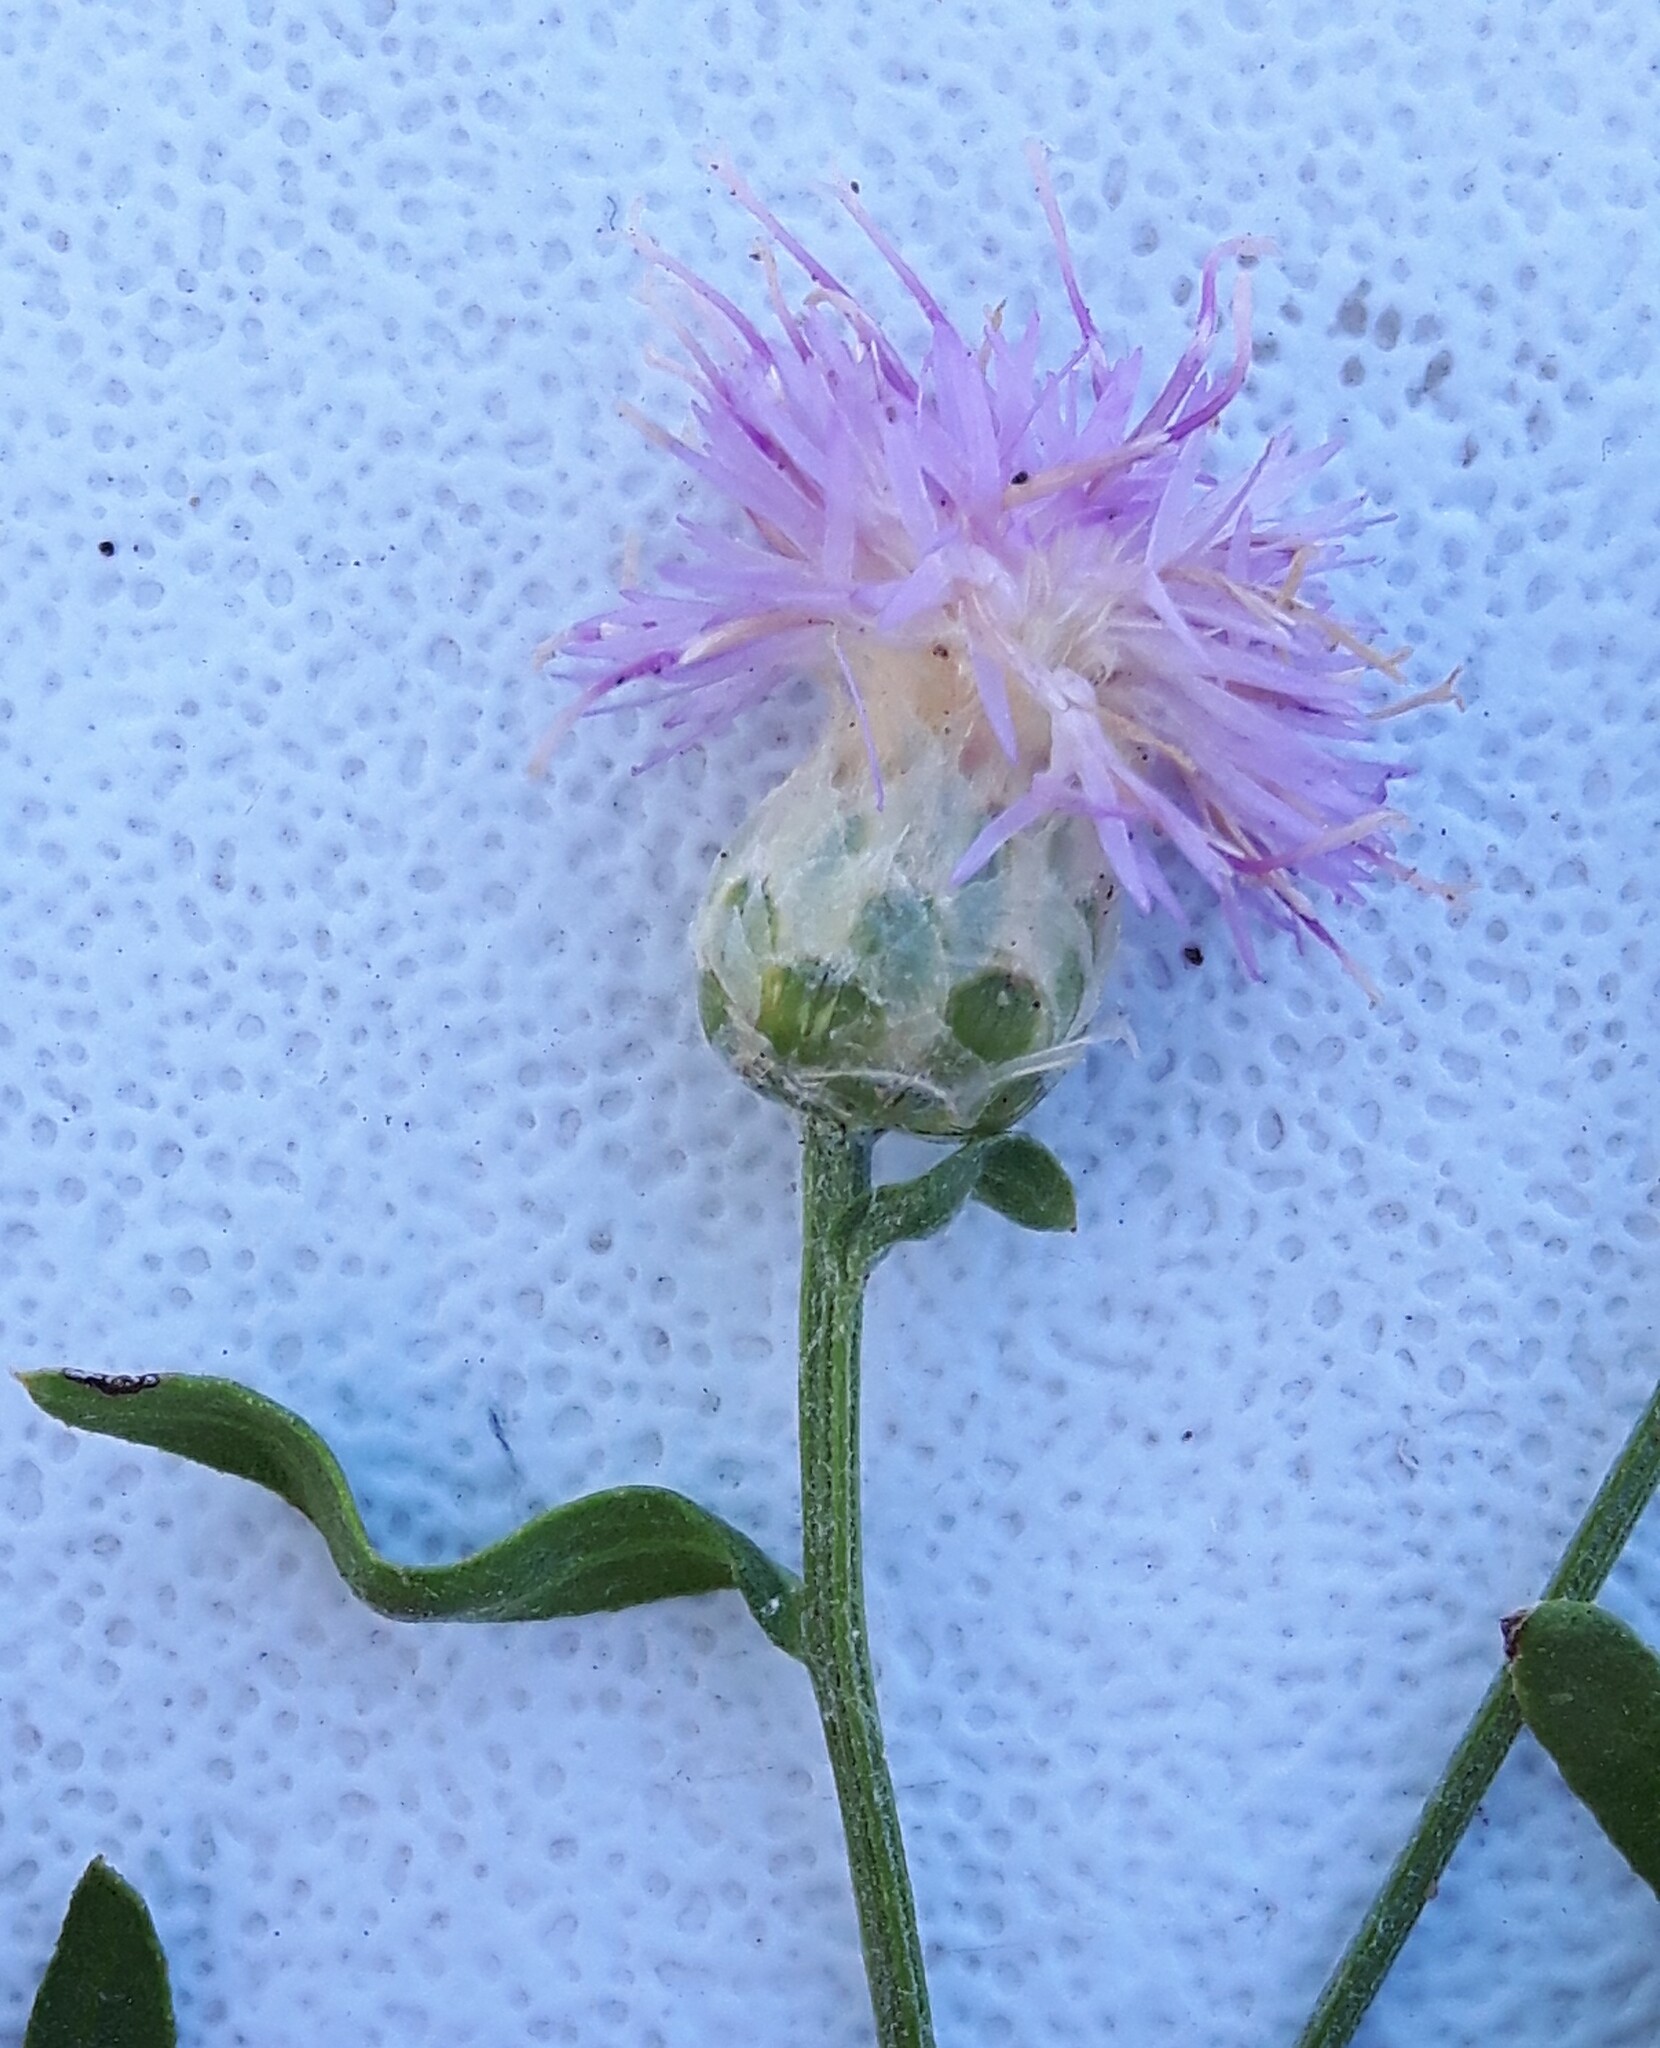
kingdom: Plantae
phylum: Tracheophyta
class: Magnoliopsida
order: Asterales
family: Asteraceae
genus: Leuzea
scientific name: Leuzea repens
